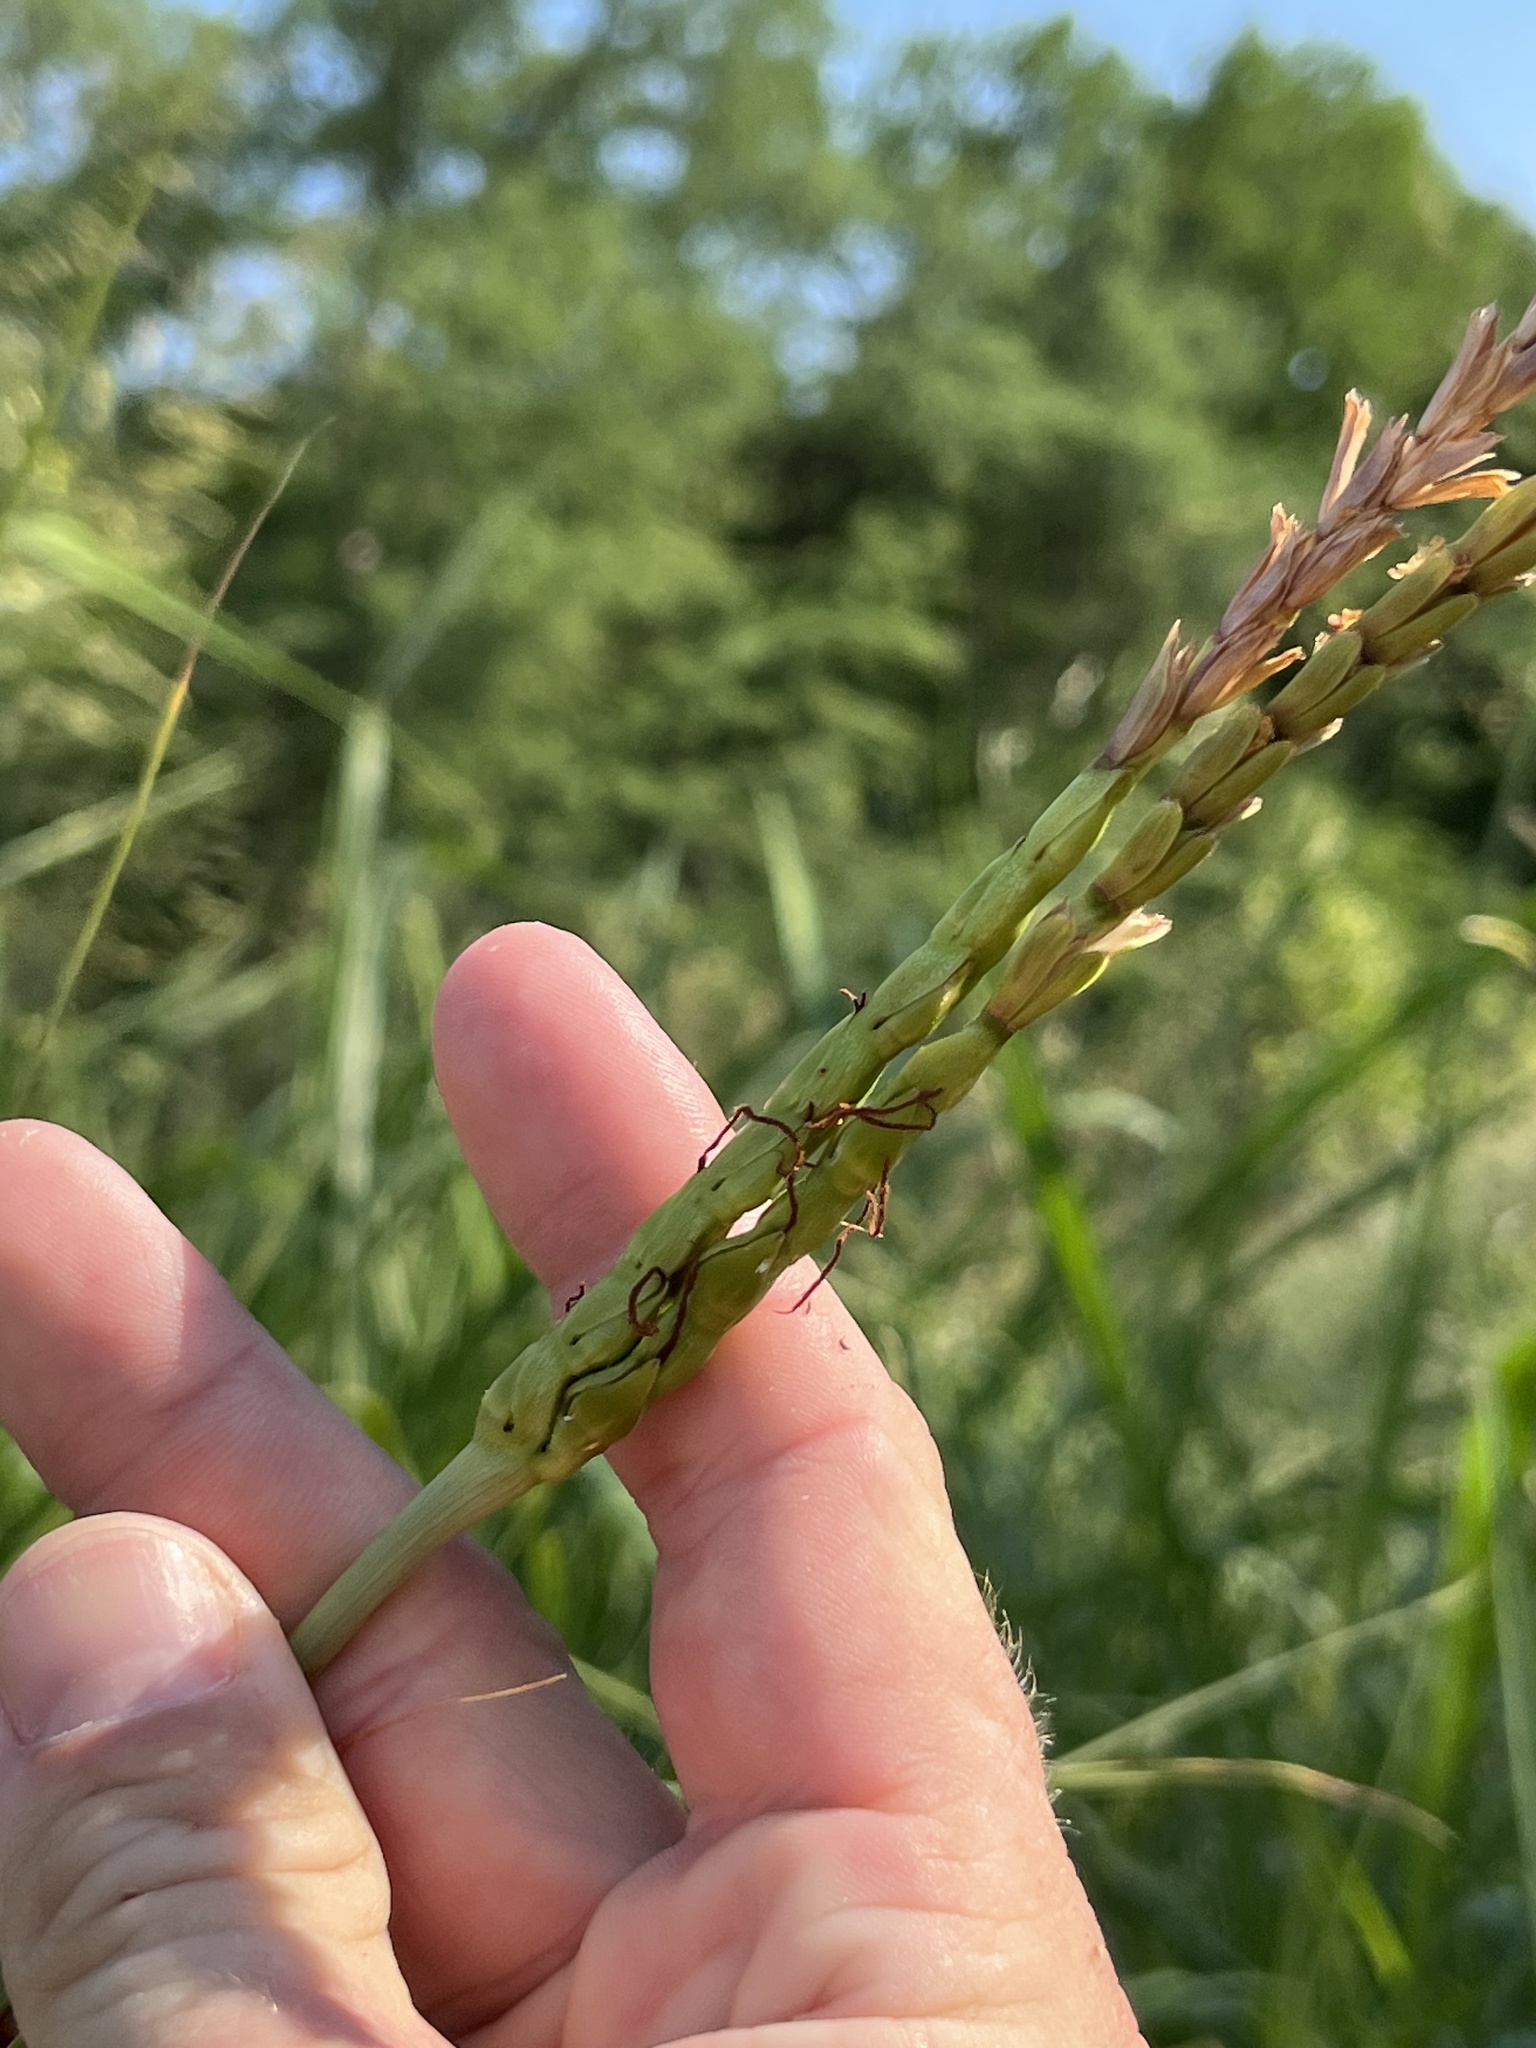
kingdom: Plantae
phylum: Tracheophyta
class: Liliopsida
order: Poales
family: Poaceae
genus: Tripsacum
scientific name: Tripsacum dactyloides
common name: Buffalo-grass
